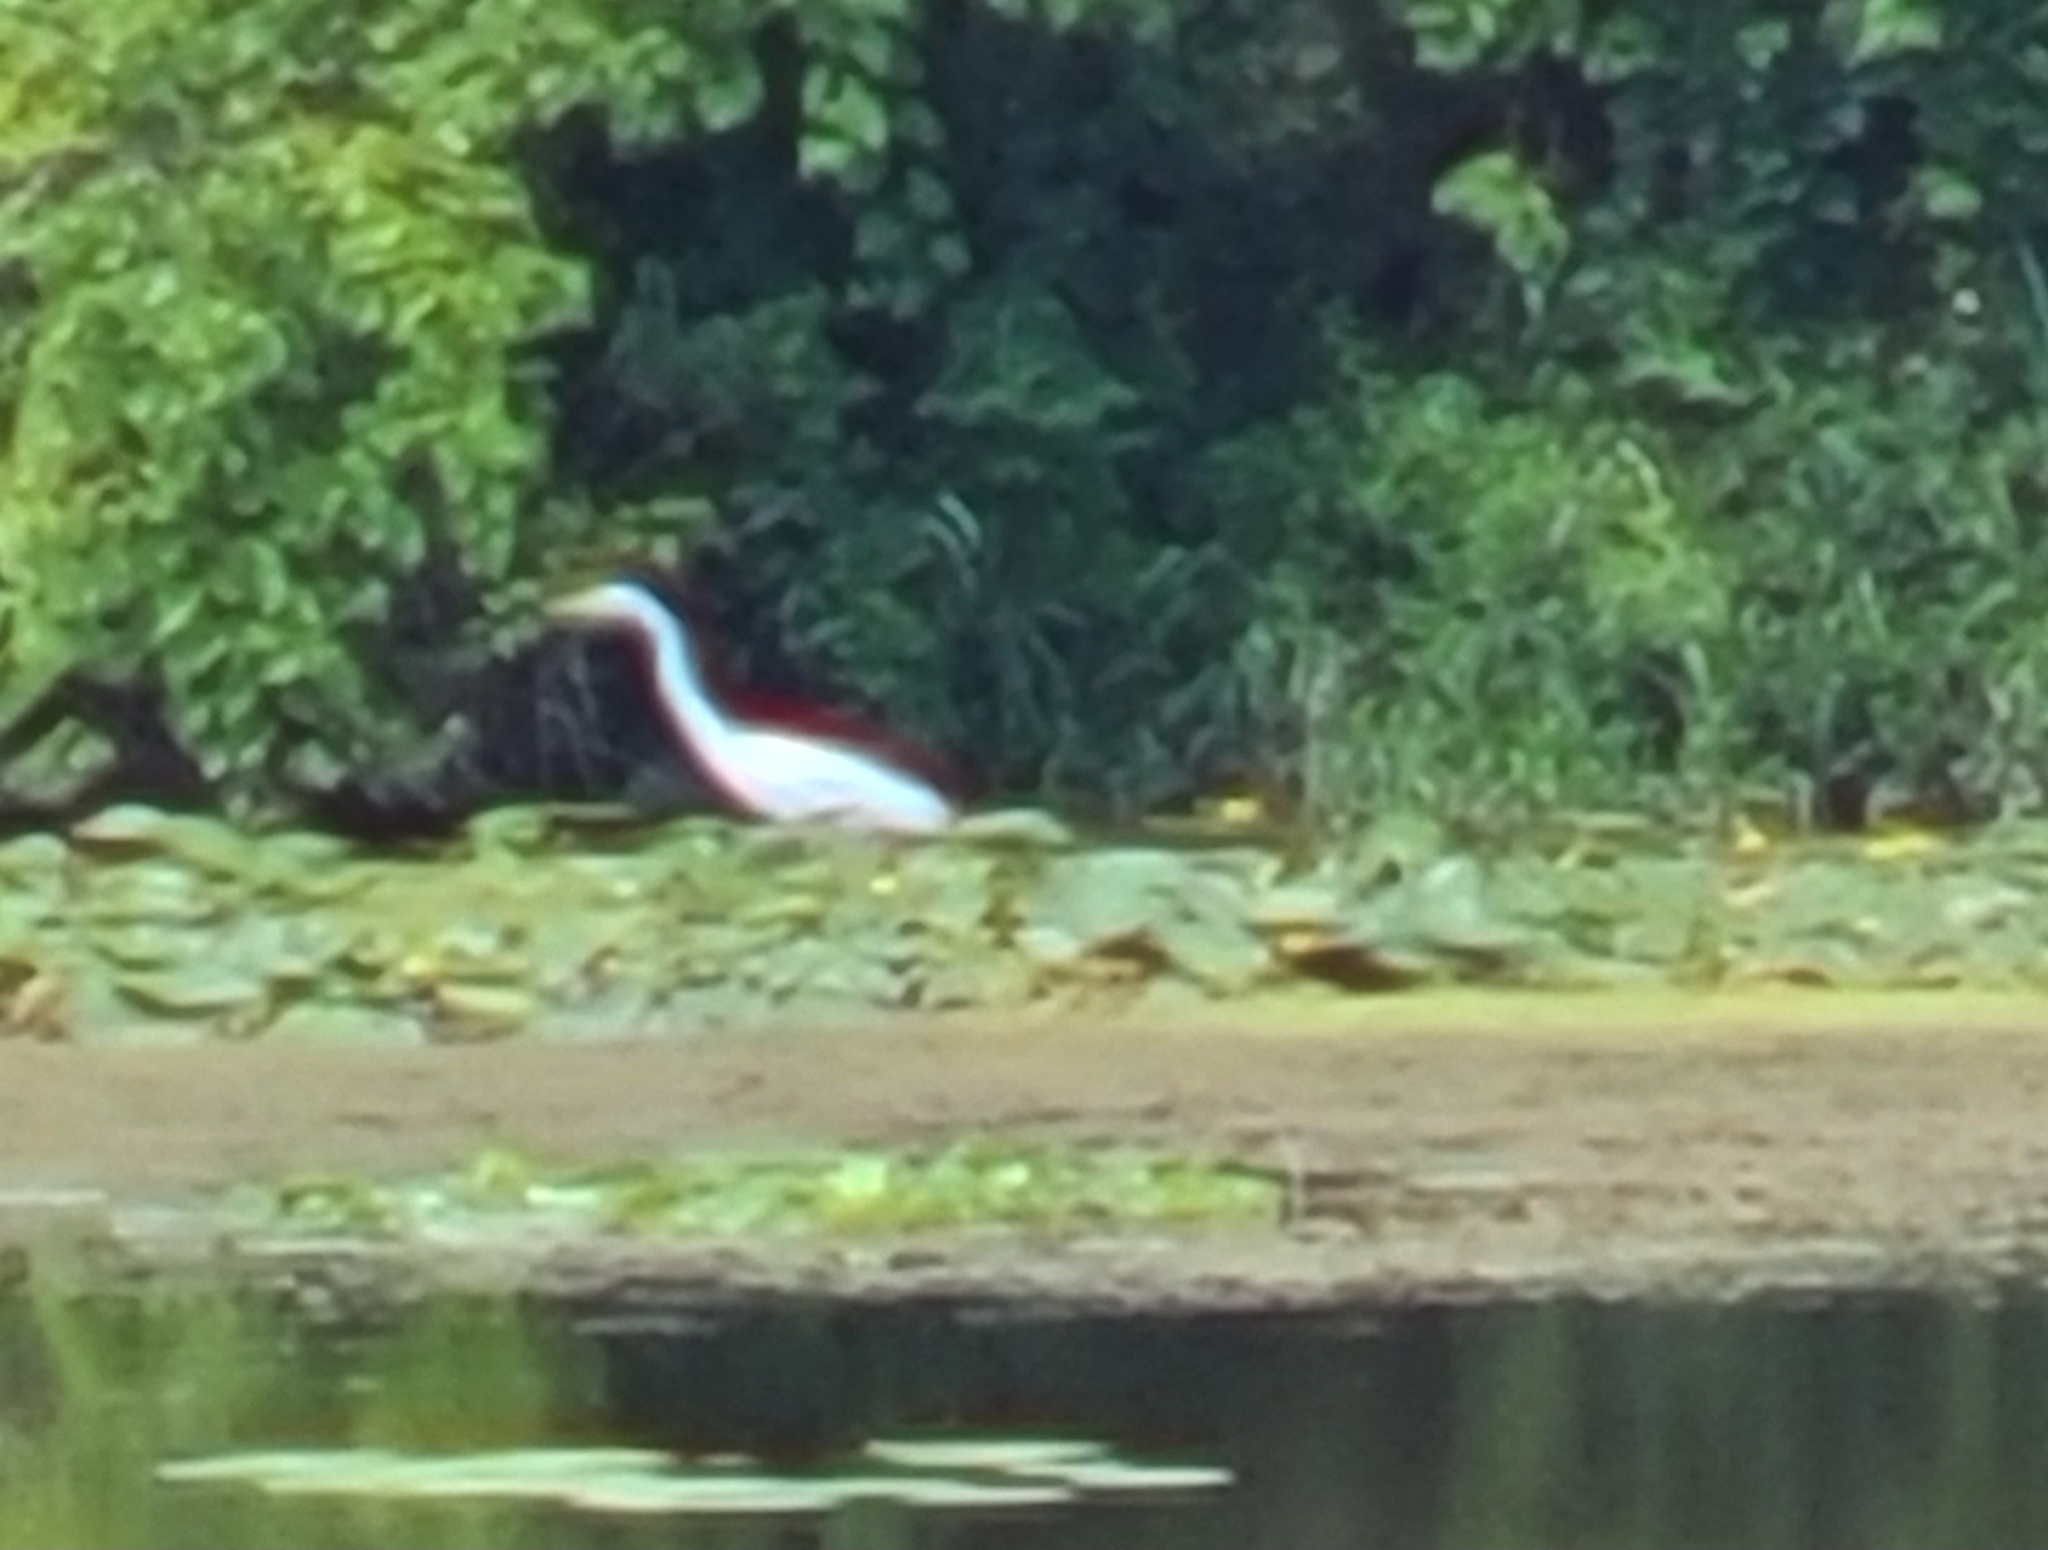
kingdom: Animalia
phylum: Chordata
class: Aves
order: Pelecaniformes
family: Ardeidae
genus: Ardea
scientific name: Ardea alba
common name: Great egret
